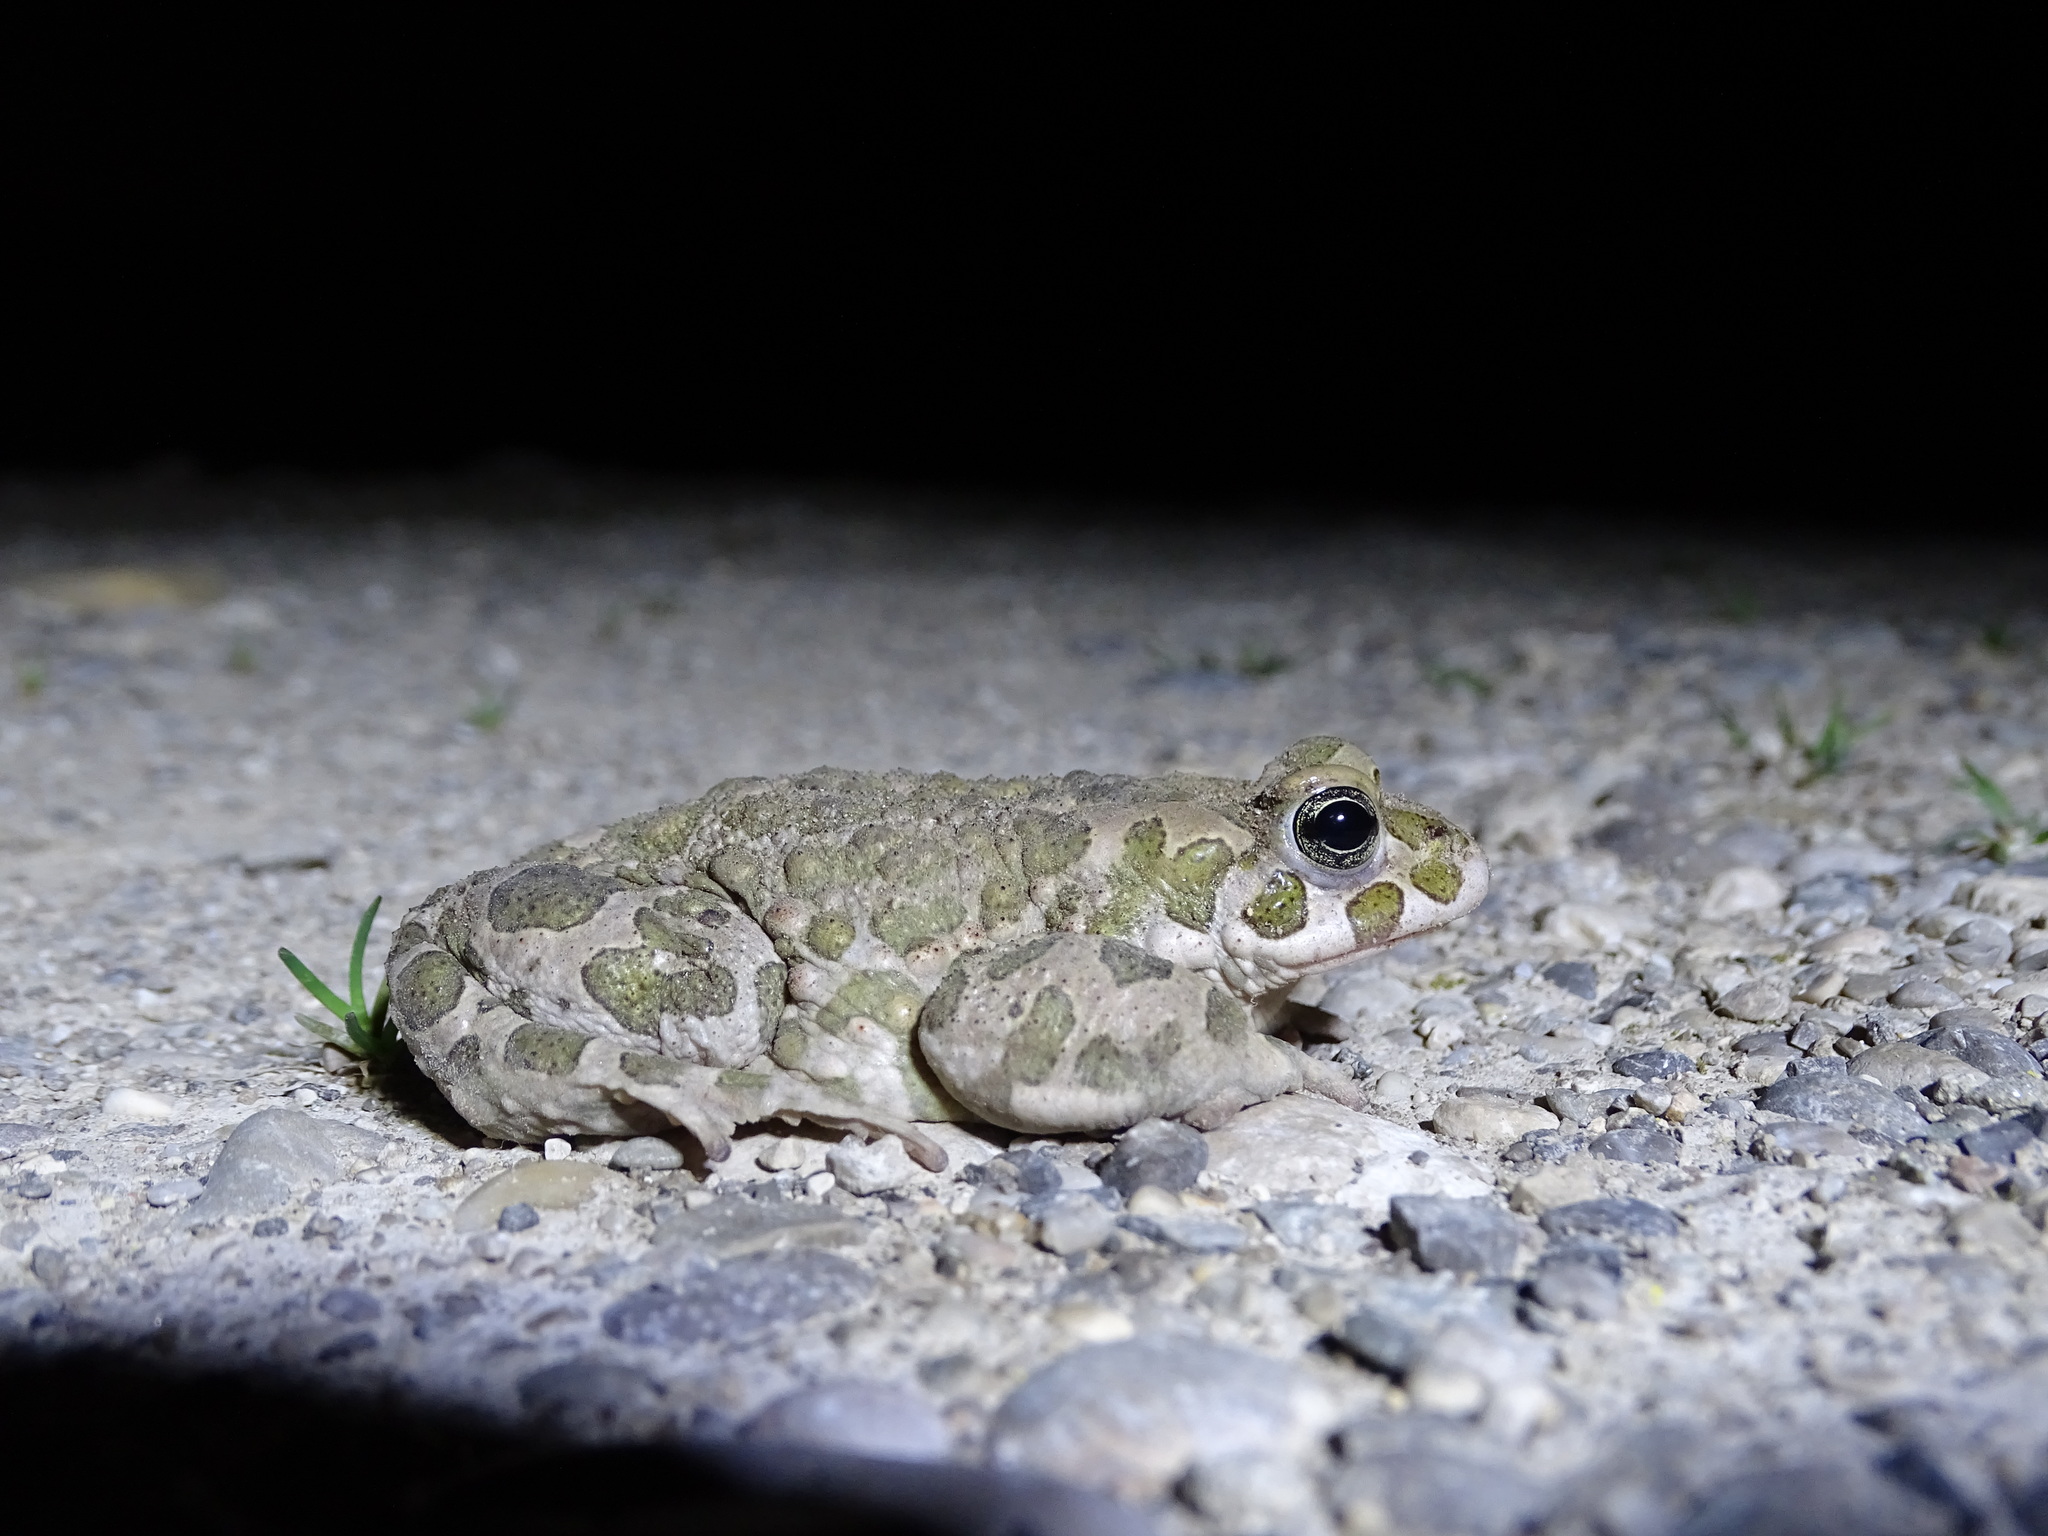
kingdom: Animalia
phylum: Chordata
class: Amphibia
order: Anura
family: Bufonidae
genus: Bufotes
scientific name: Bufotes viridis
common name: European green toad
